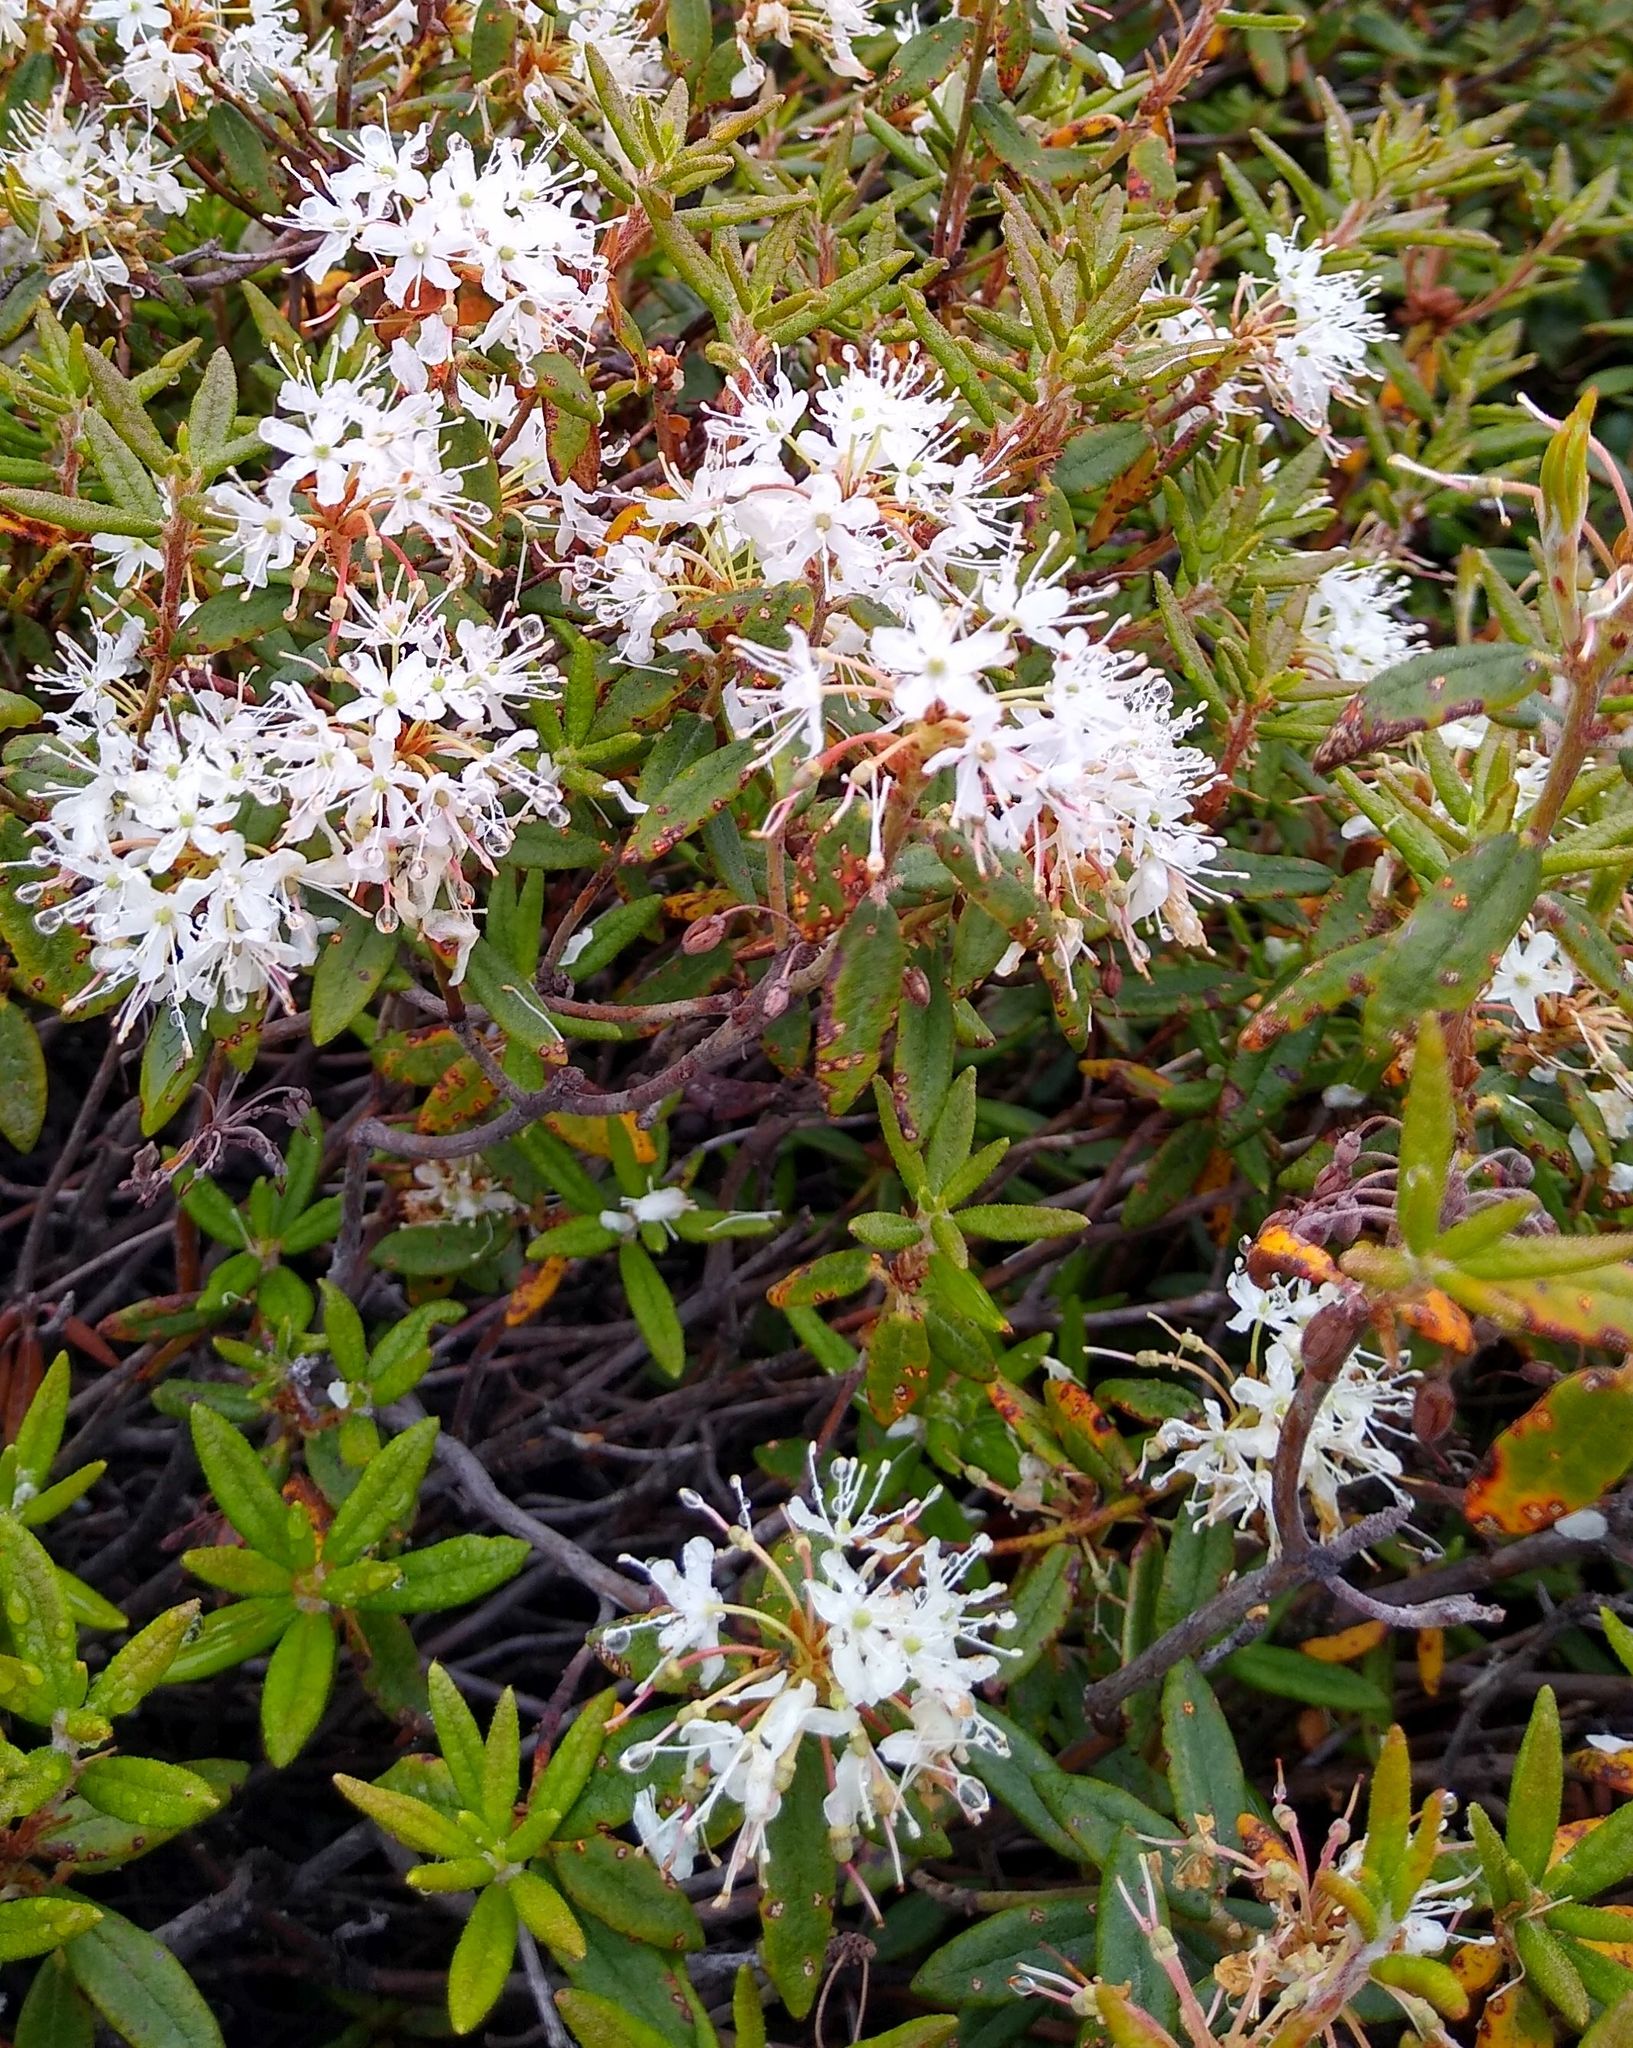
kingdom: Plantae
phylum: Tracheophyta
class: Magnoliopsida
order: Ericales
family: Ericaceae
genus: Rhododendron
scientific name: Rhododendron groenlandicum
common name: Bog labrador tea
